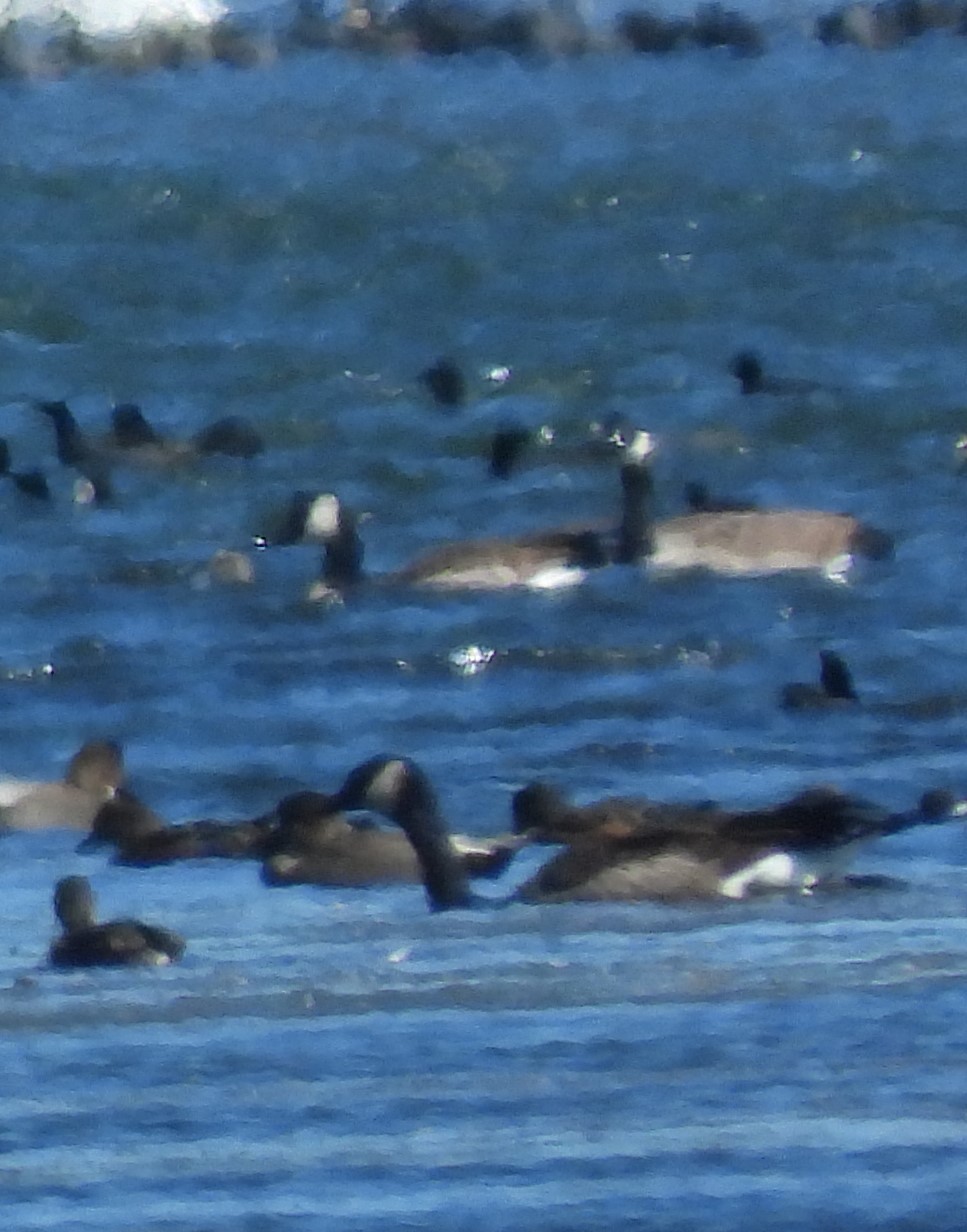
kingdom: Animalia
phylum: Chordata
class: Aves
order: Anseriformes
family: Anatidae
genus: Branta
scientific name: Branta canadensis
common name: Canada goose
